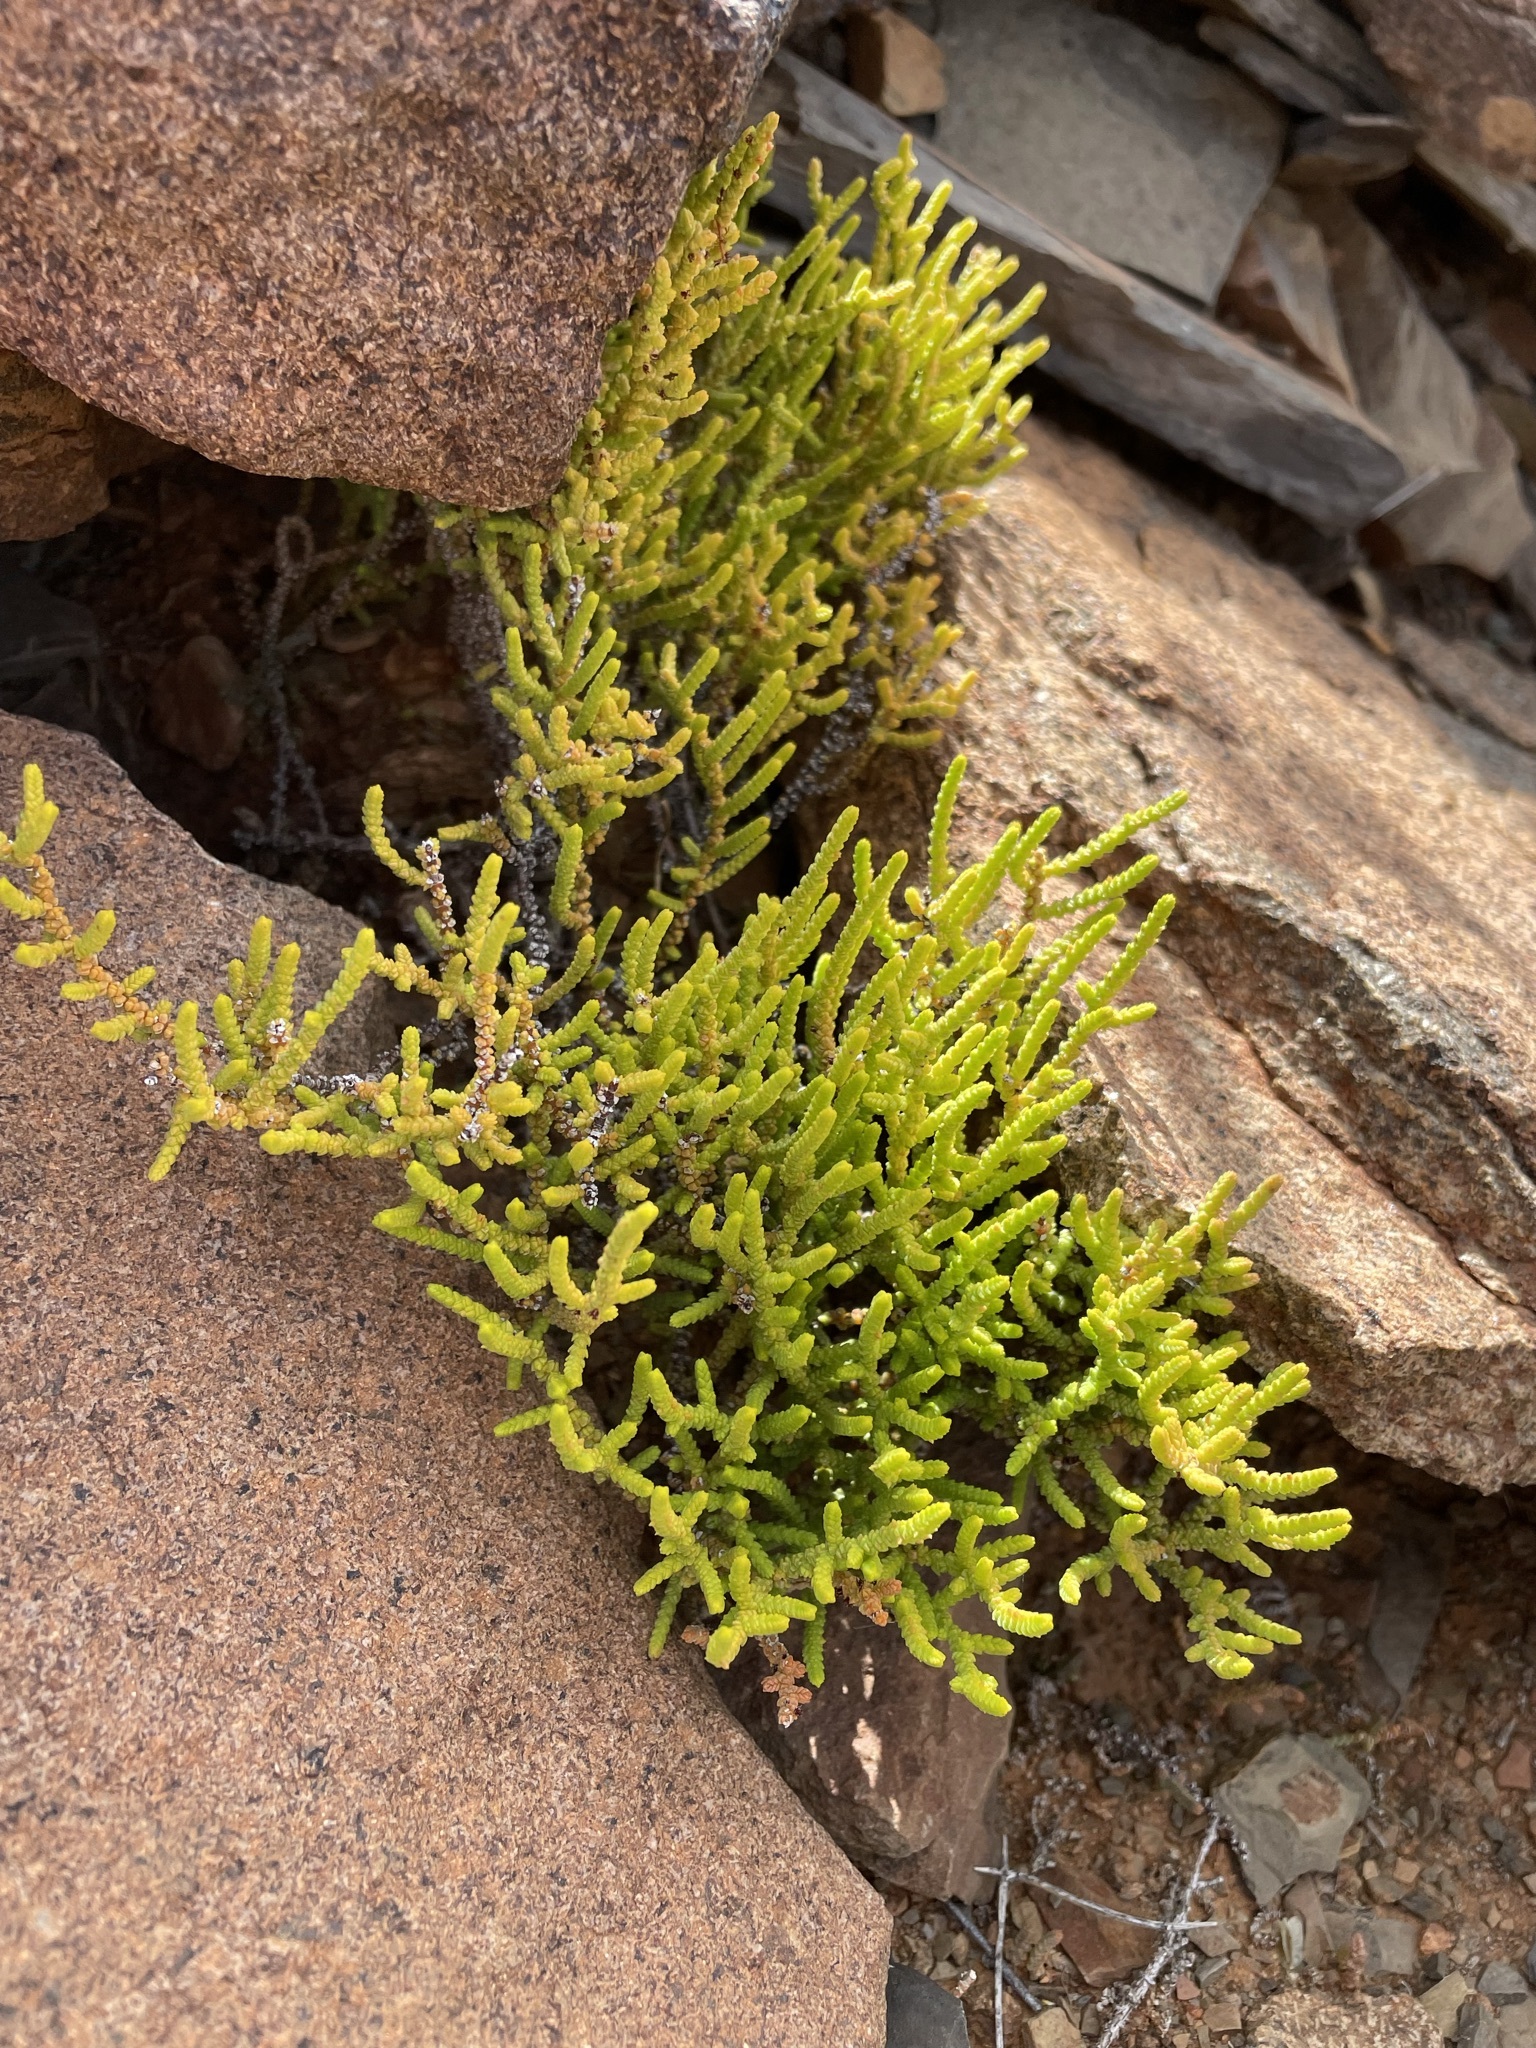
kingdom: Plantae
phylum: Tracheophyta
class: Magnoliopsida
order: Saxifragales
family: Crassulaceae
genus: Crassula
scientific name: Crassula muscosa
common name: Toy-cypress
